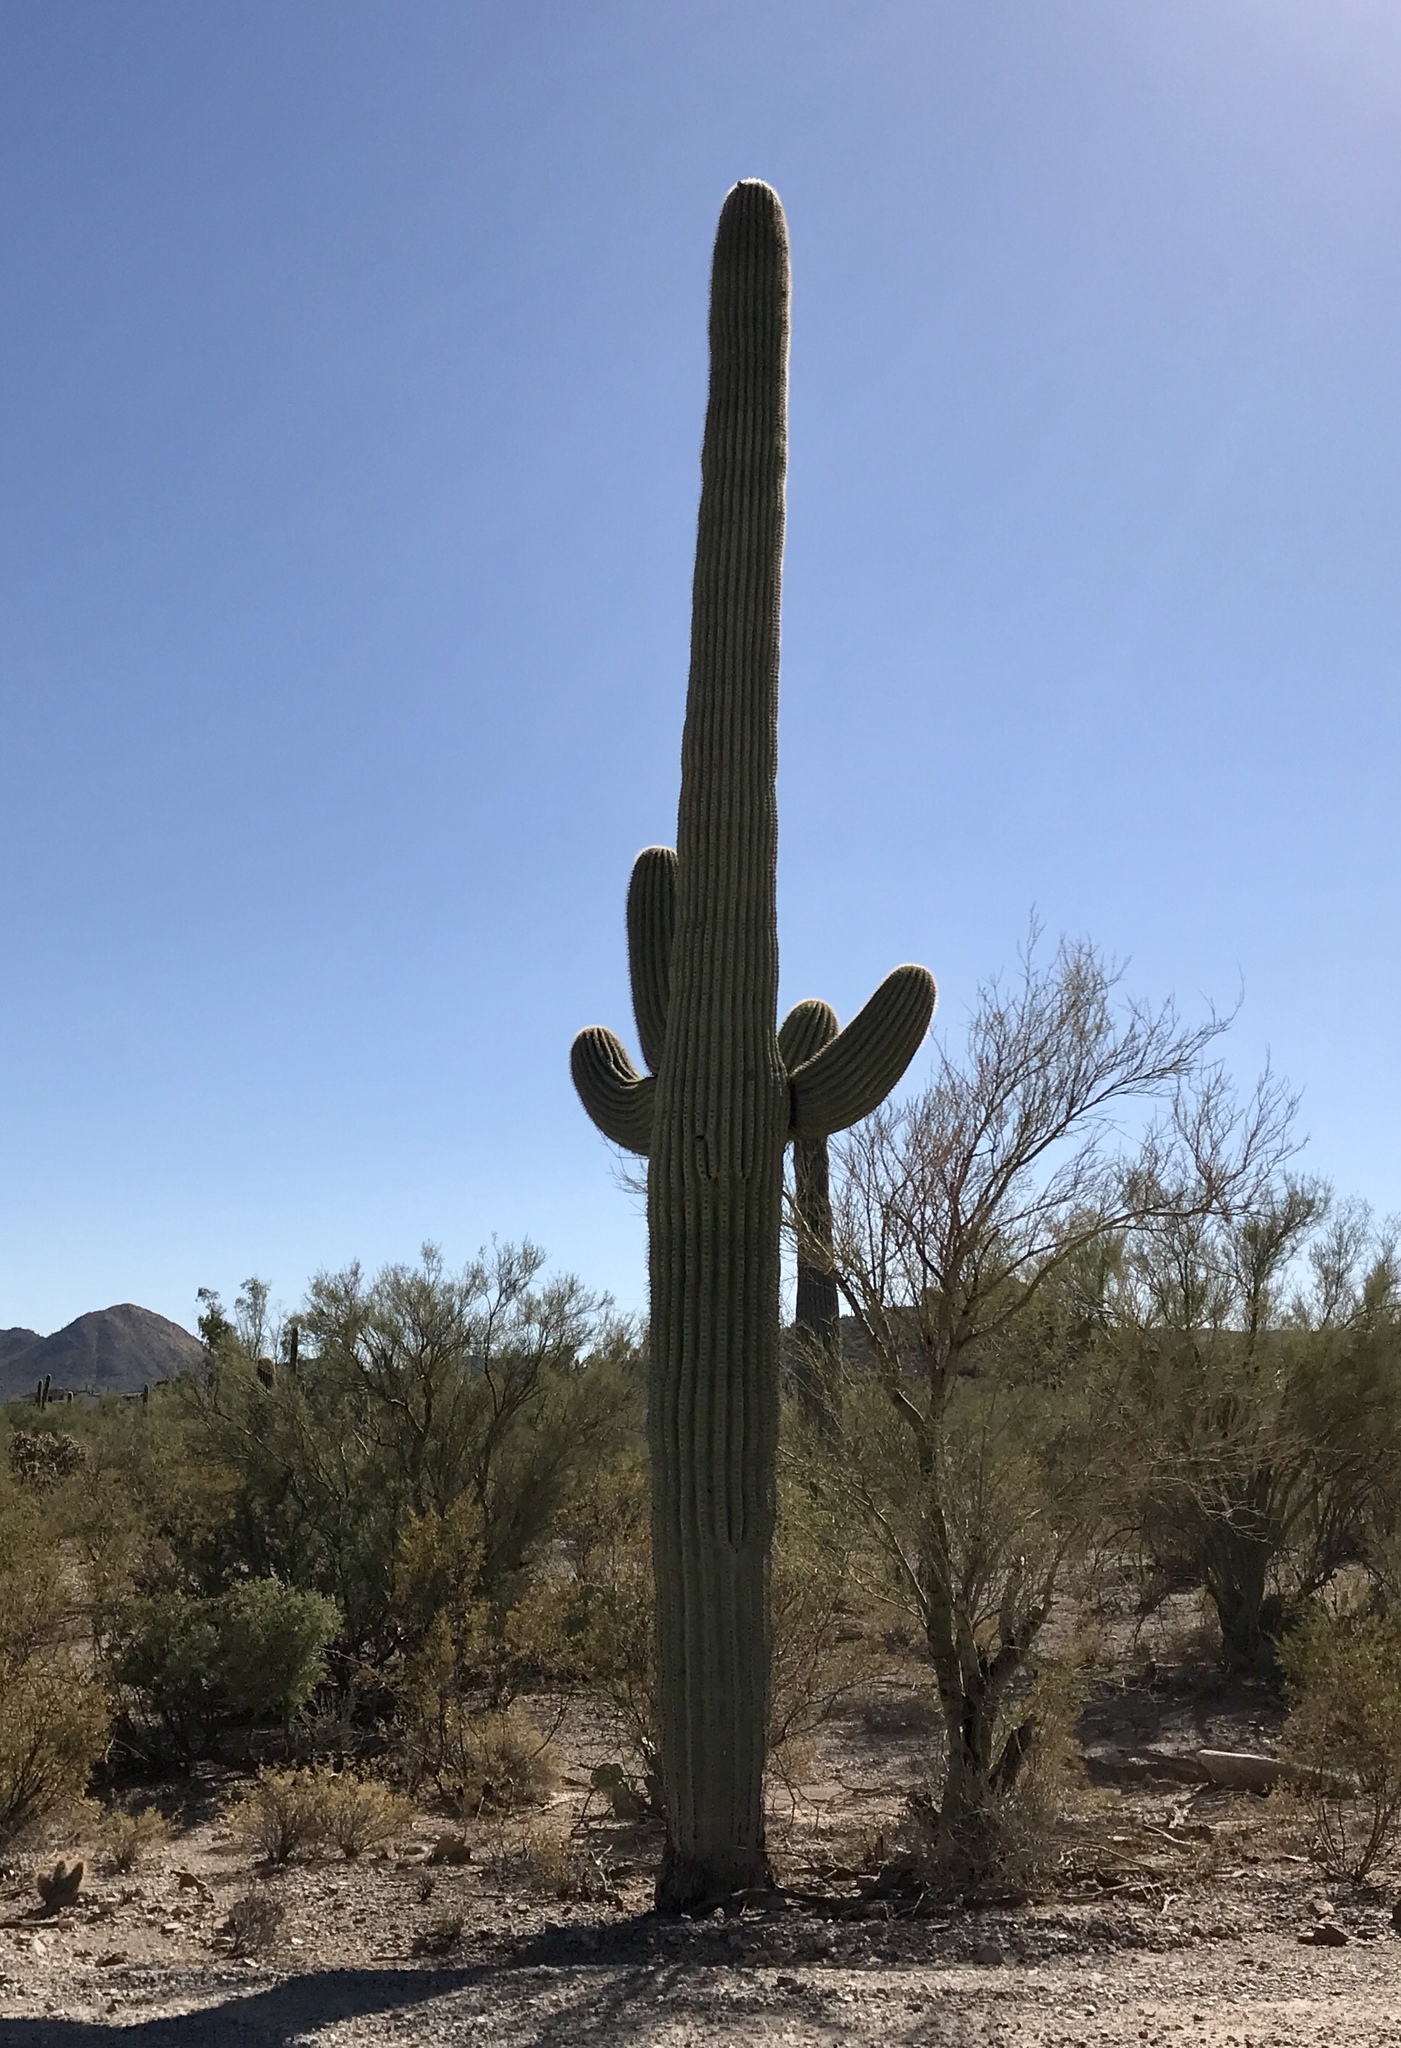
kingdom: Plantae
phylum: Tracheophyta
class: Magnoliopsida
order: Caryophyllales
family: Cactaceae
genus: Carnegiea
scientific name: Carnegiea gigantea
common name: Saguaro
